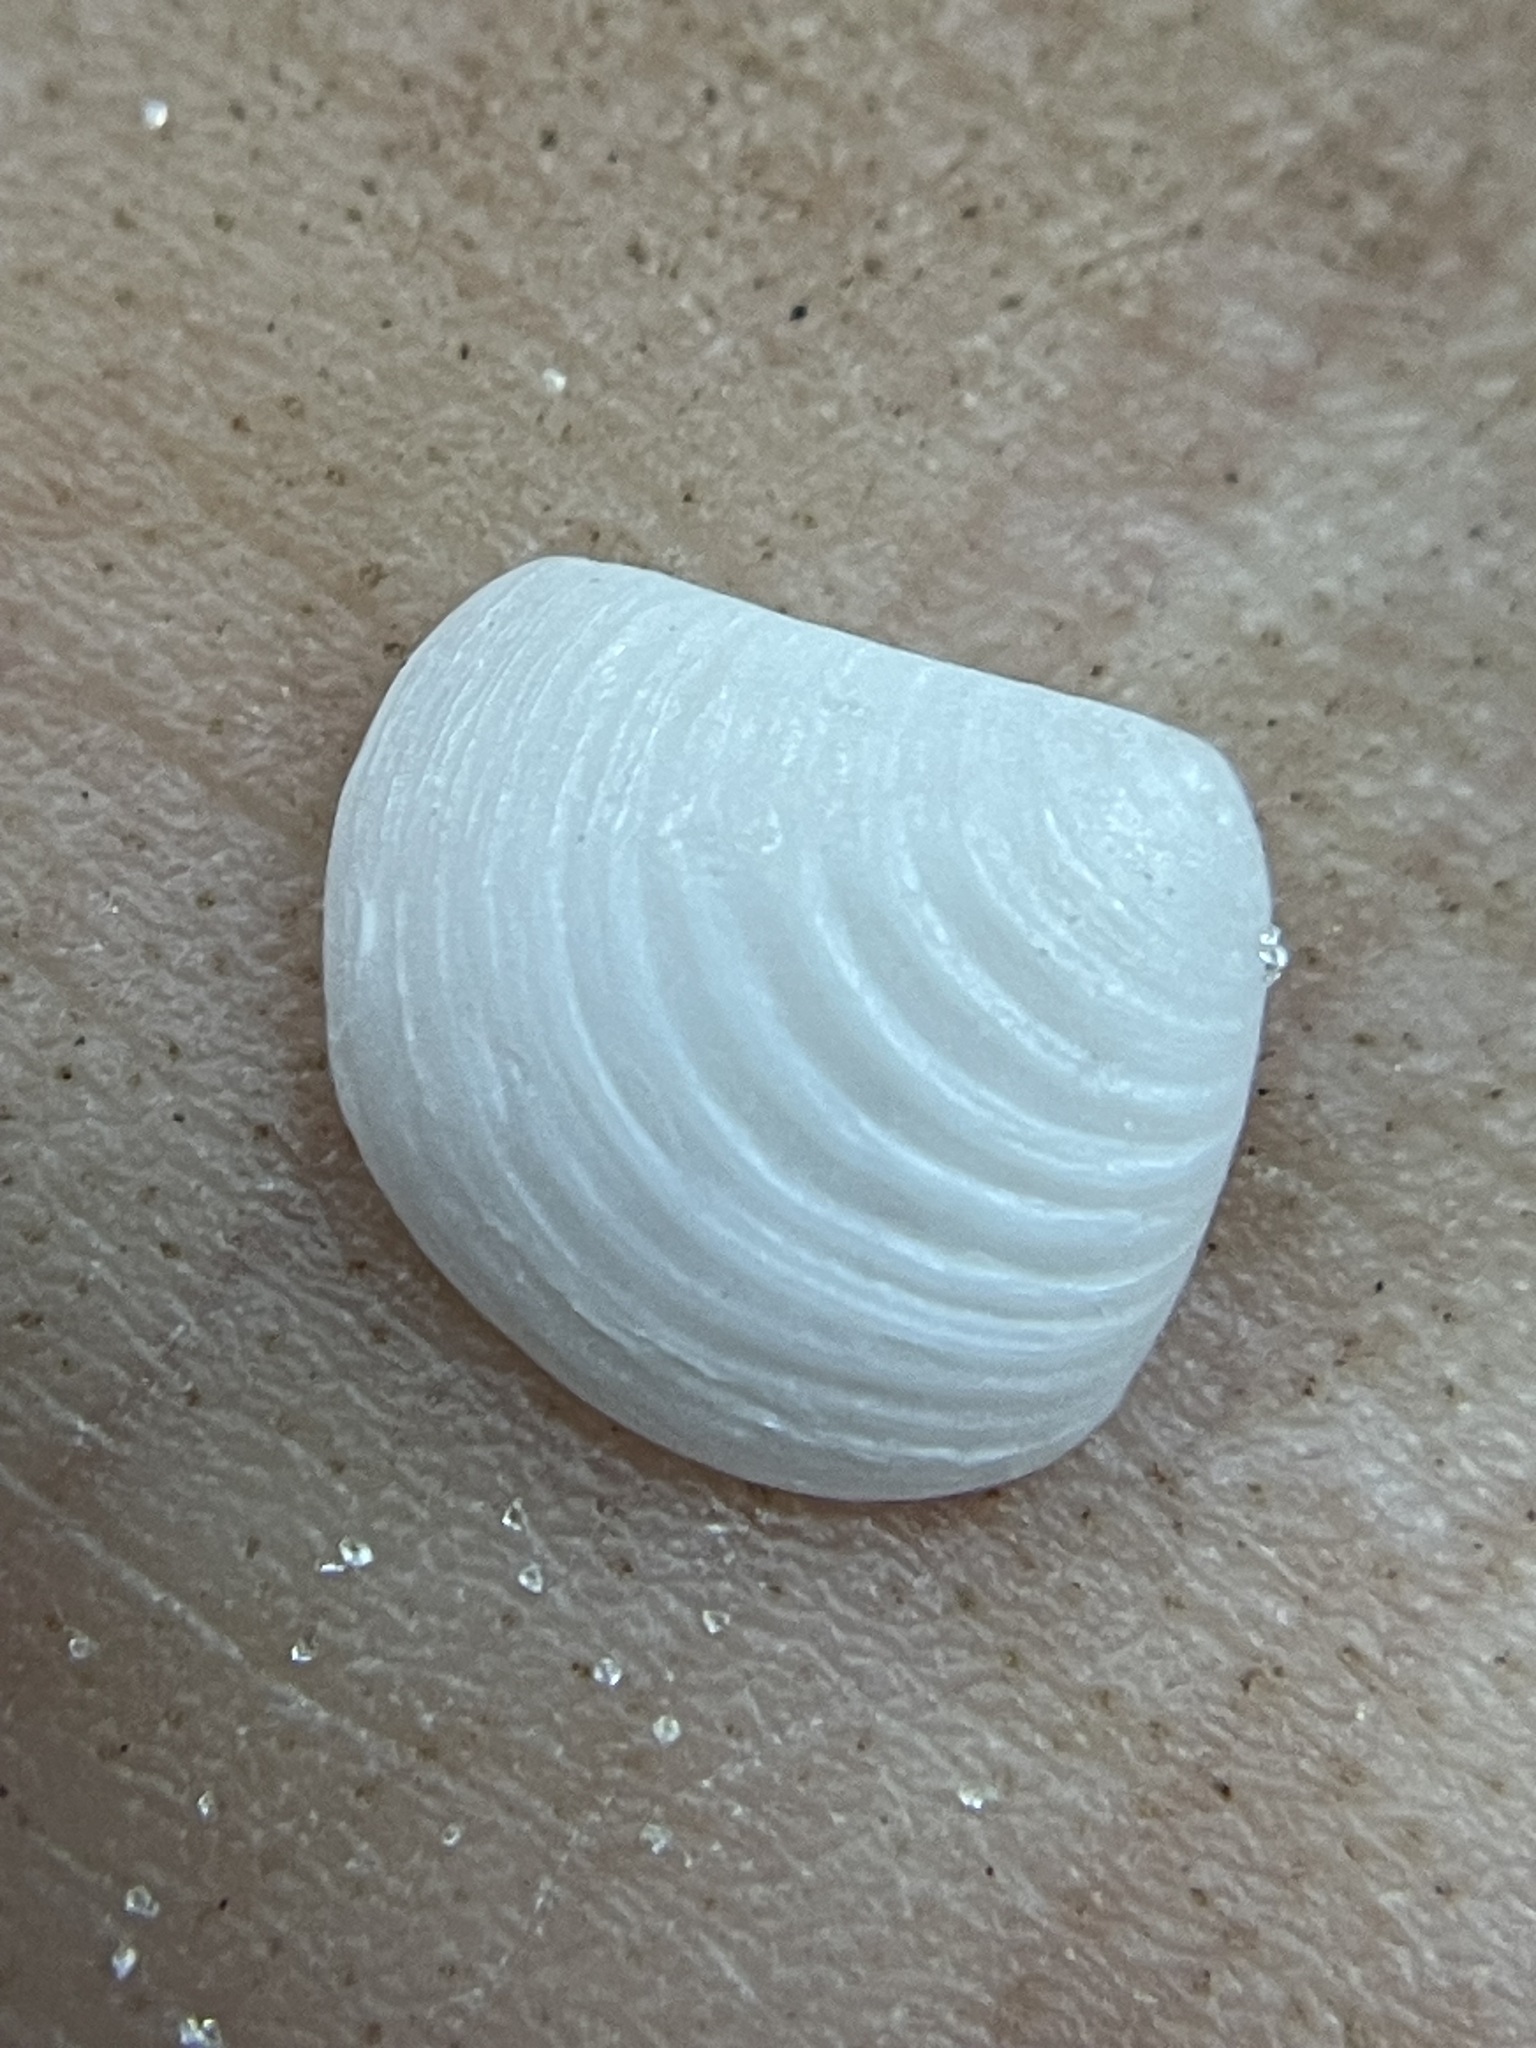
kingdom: Animalia
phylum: Mollusca
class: Bivalvia
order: Carditida
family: Crassatellidae
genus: Crassinella
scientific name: Crassinella lunulata
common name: Lunate crassinella
